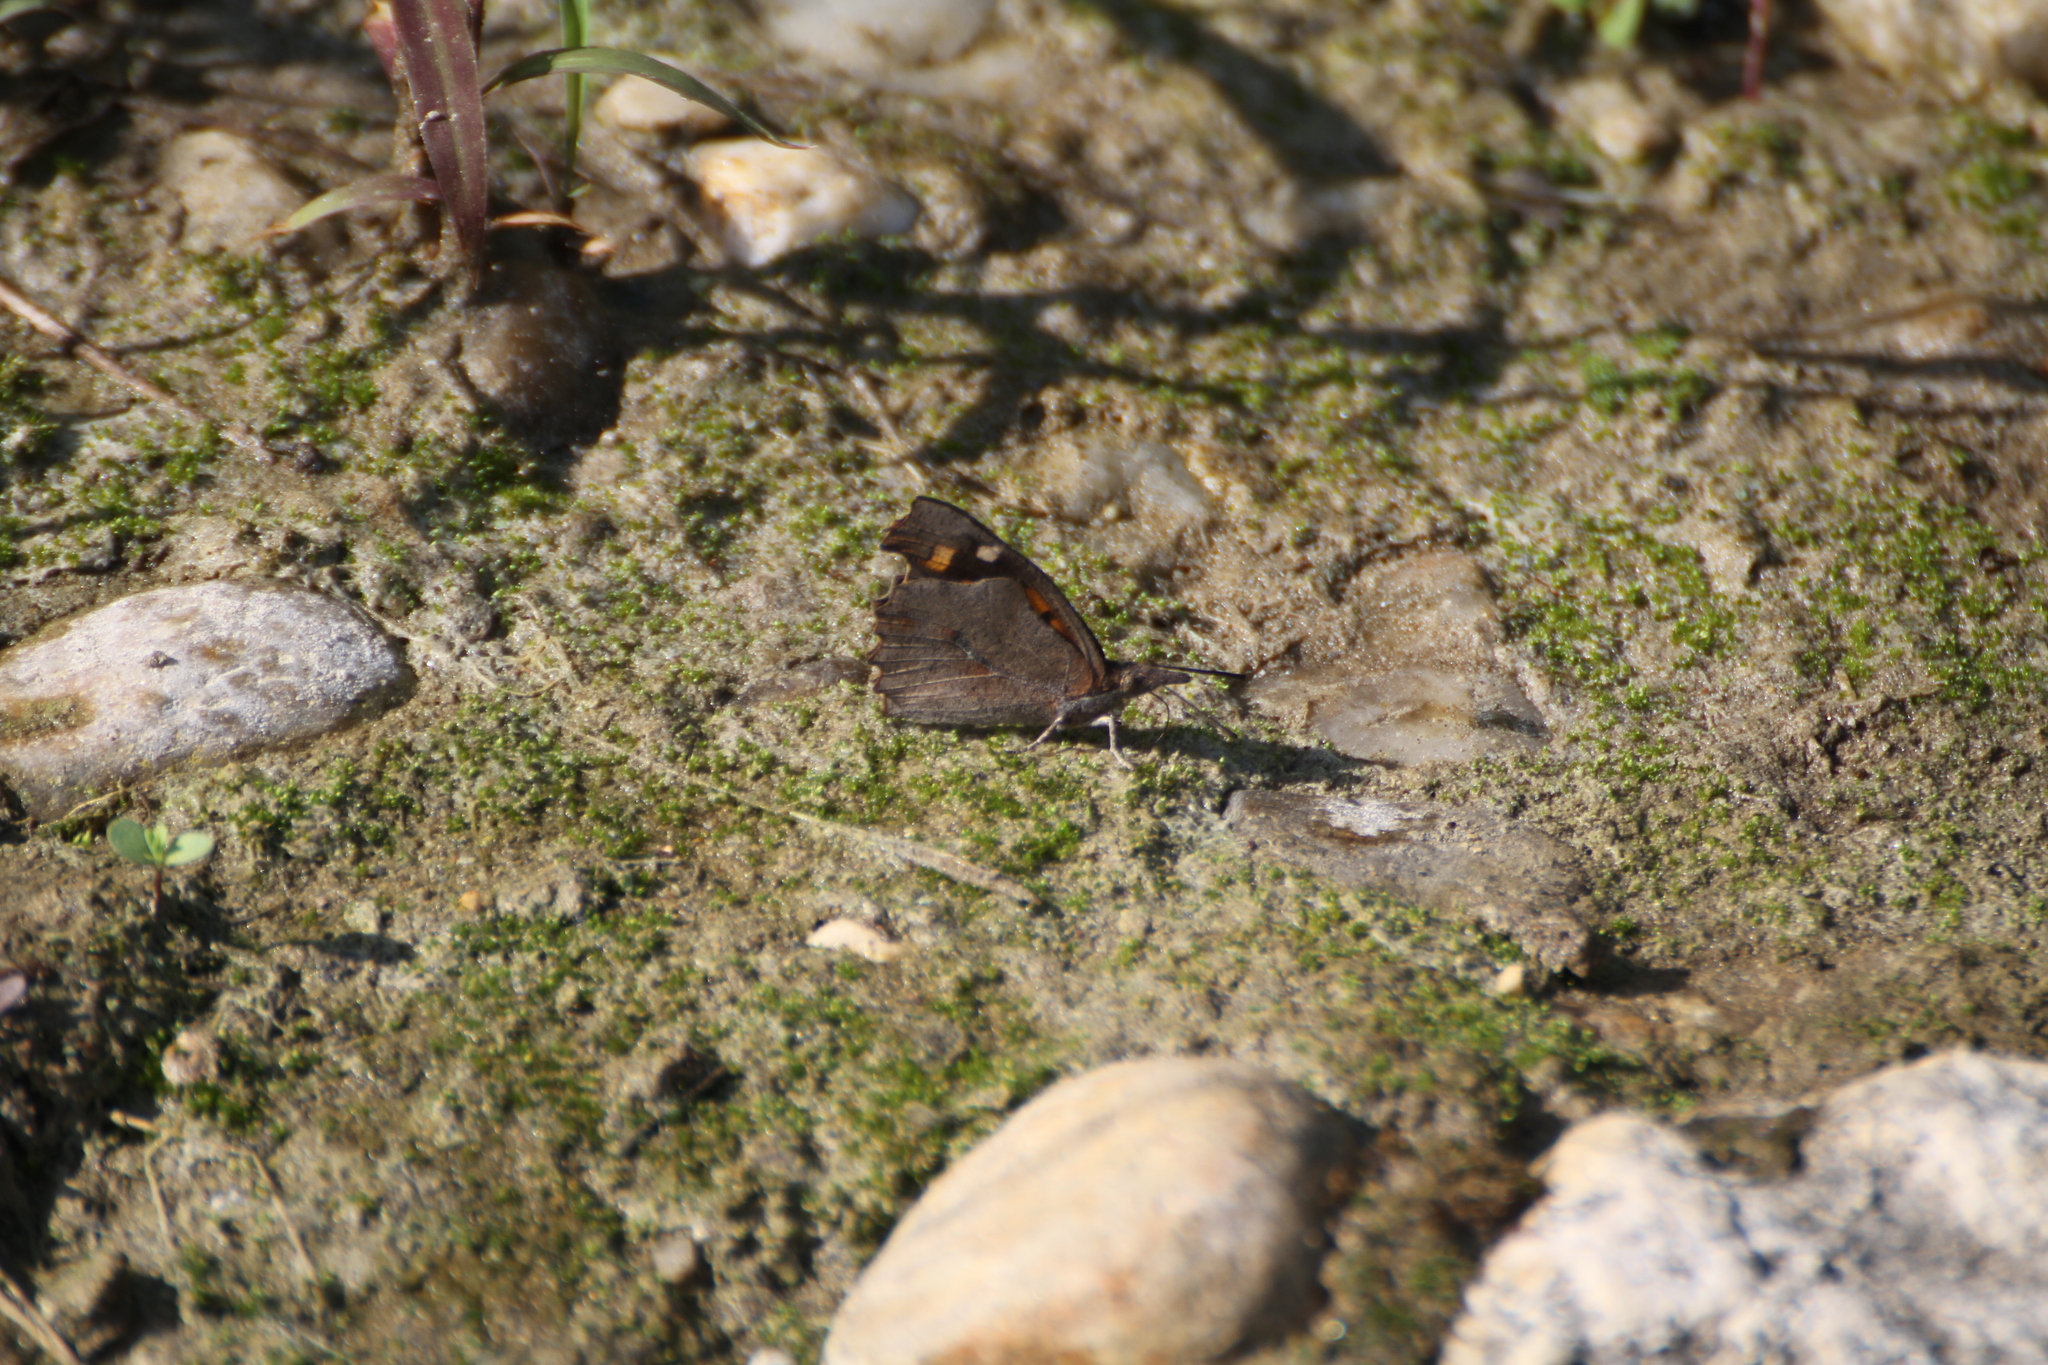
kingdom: Animalia
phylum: Arthropoda
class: Insecta
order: Lepidoptera
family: Nymphalidae
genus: Libythea
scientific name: Libythea celtis
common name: Nettle-tree butterfly
